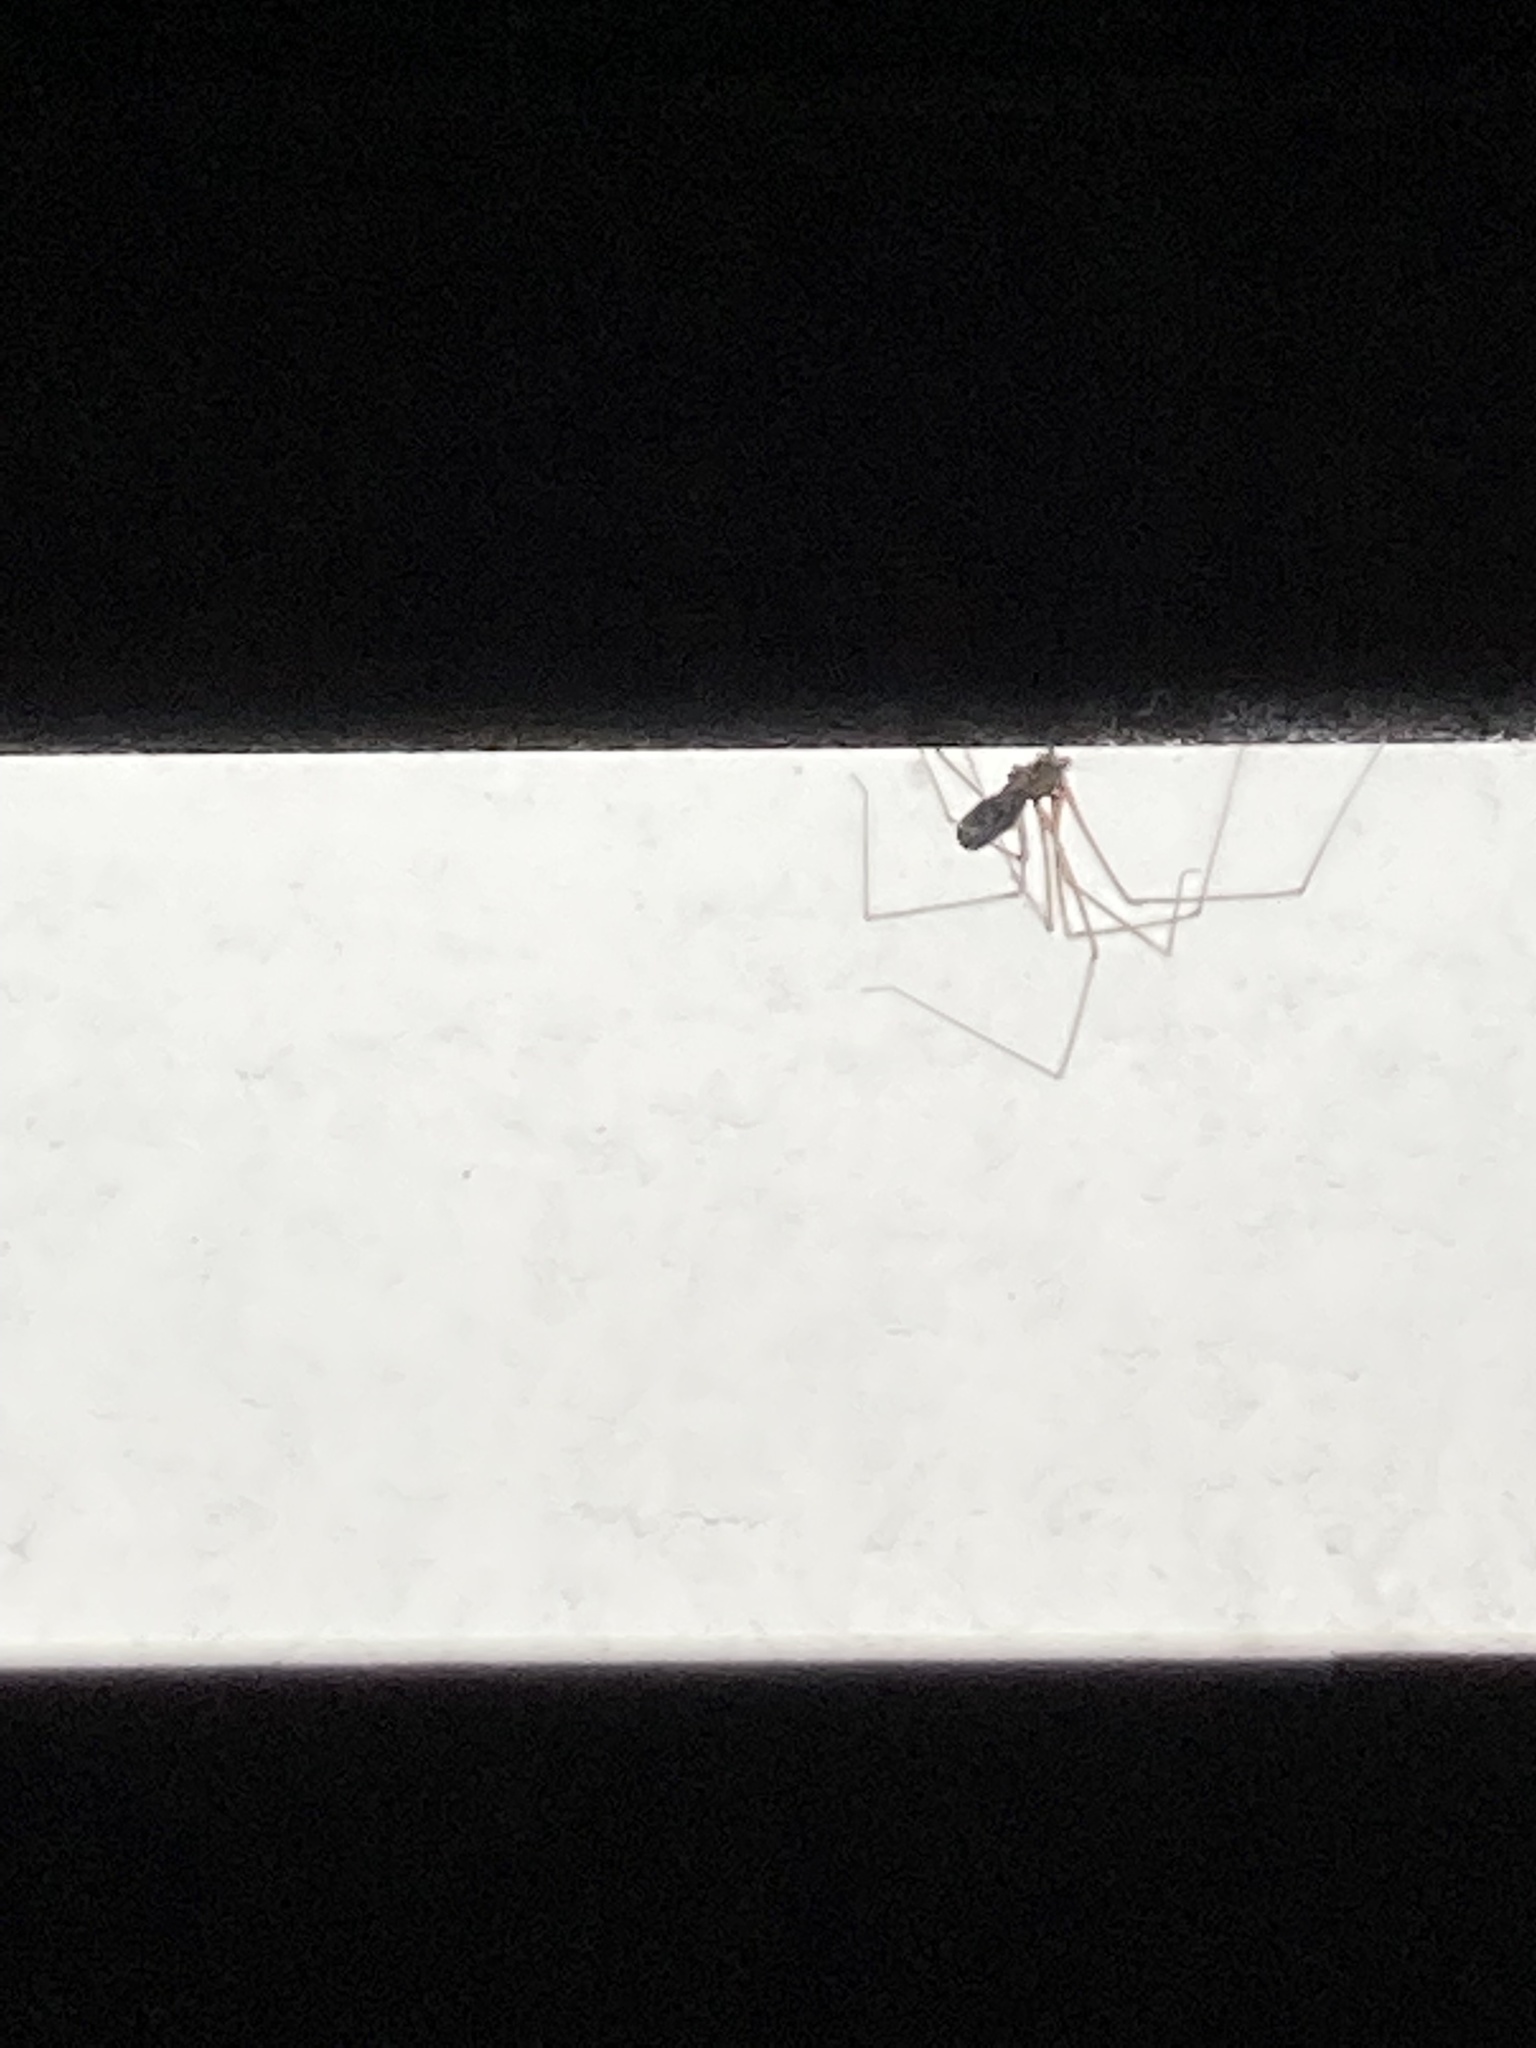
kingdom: Animalia
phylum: Arthropoda
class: Arachnida
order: Araneae
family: Pholcidae
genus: Pholcus
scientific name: Pholcus phalangioides
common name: Longbodied cellar spider
